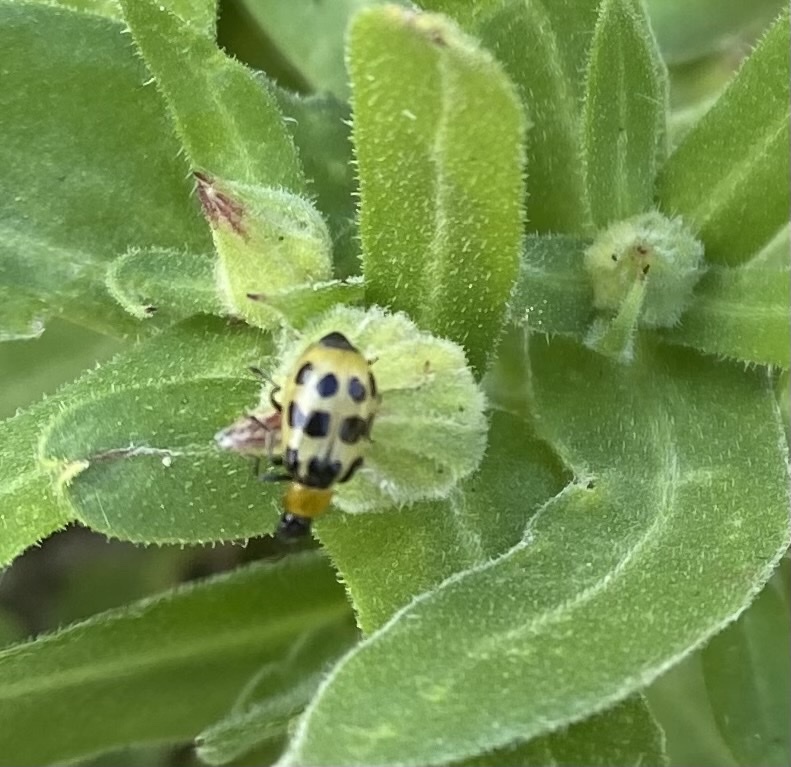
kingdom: Animalia
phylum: Arthropoda
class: Insecta
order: Coleoptera
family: Chrysomelidae
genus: Diabrotica
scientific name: Diabrotica undecimpunctata
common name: Spotted cucumber beetle
